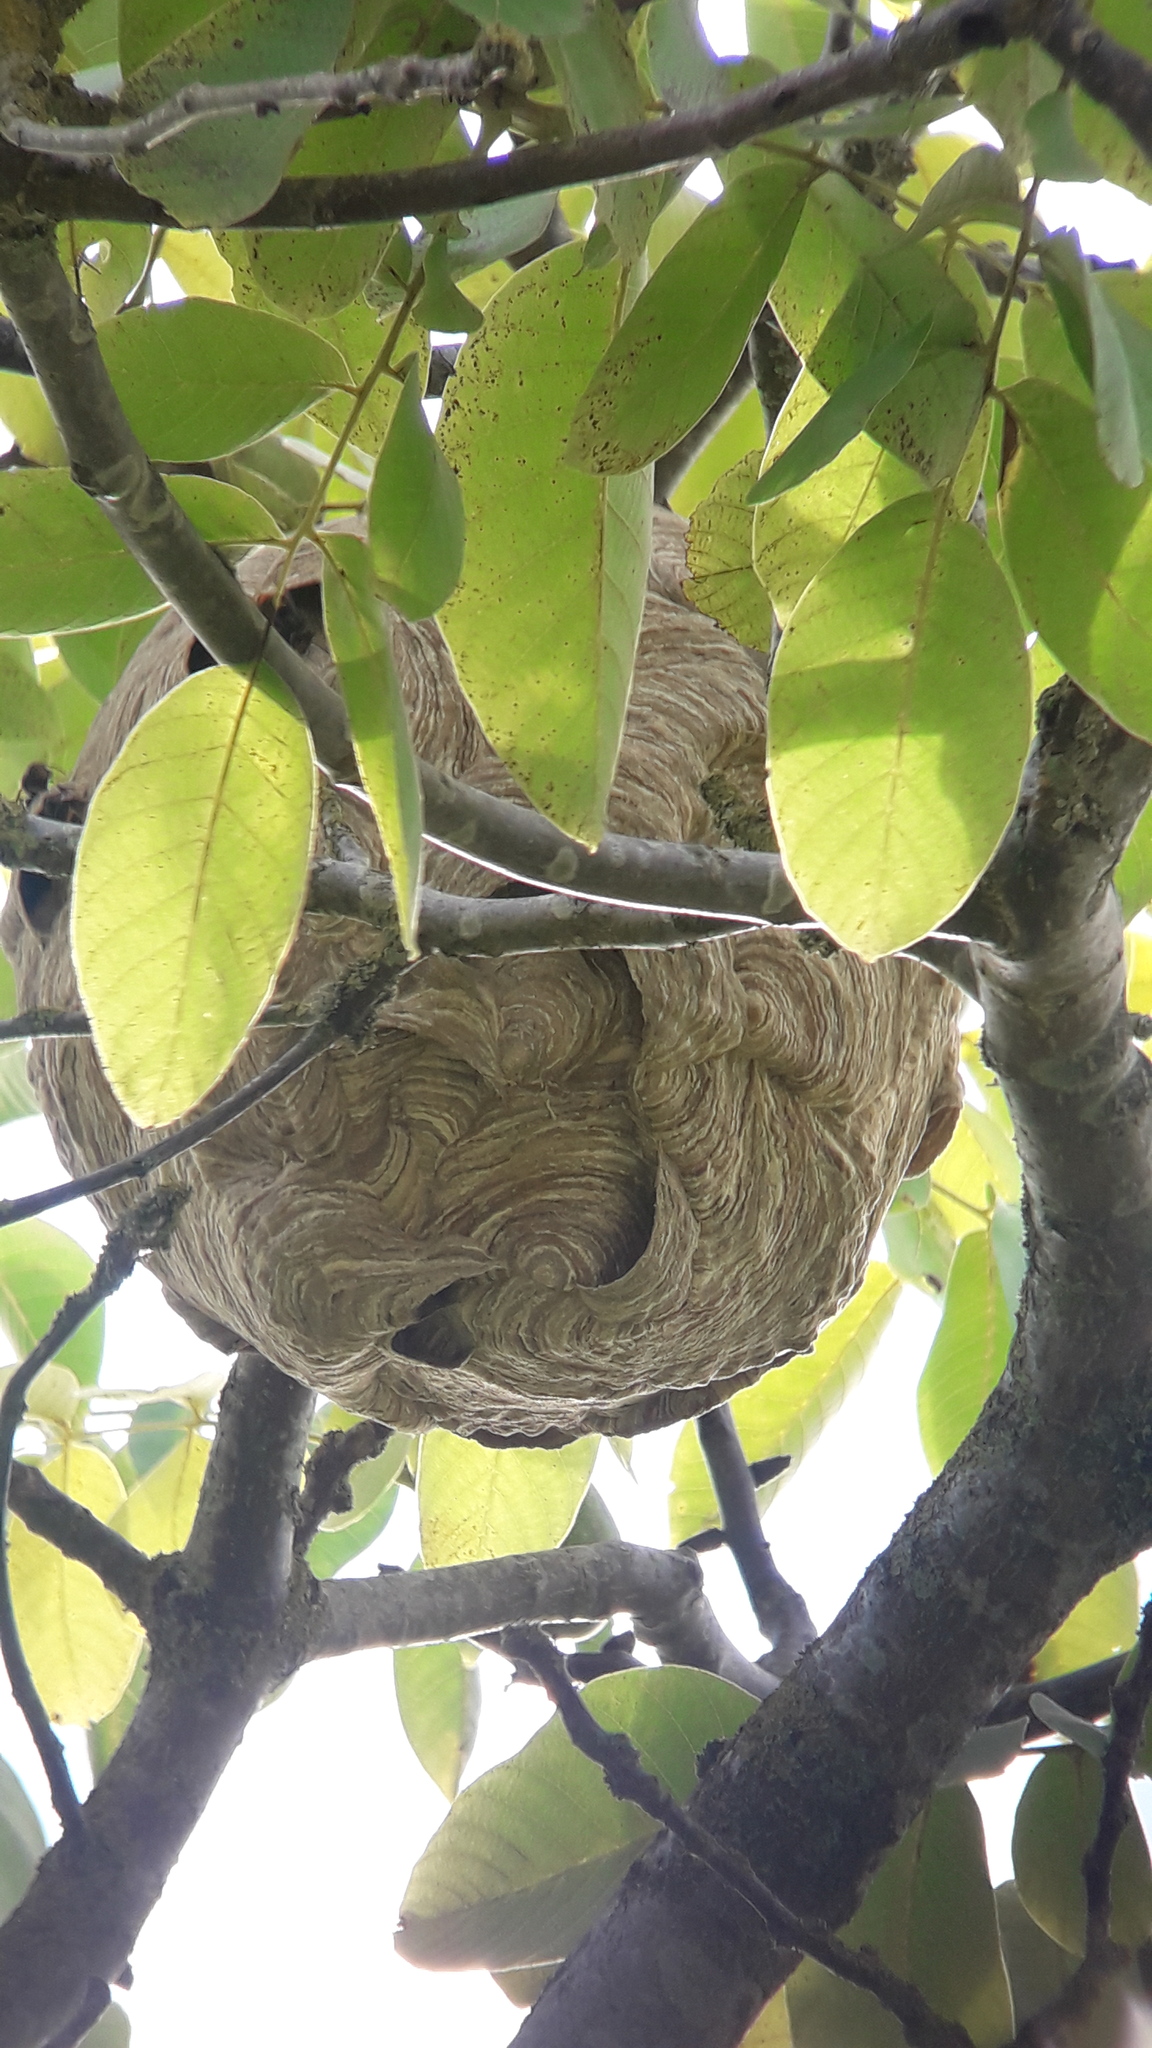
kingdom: Animalia
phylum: Arthropoda
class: Insecta
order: Hymenoptera
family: Vespidae
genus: Vespa
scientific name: Vespa velutina
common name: Asian hornet
